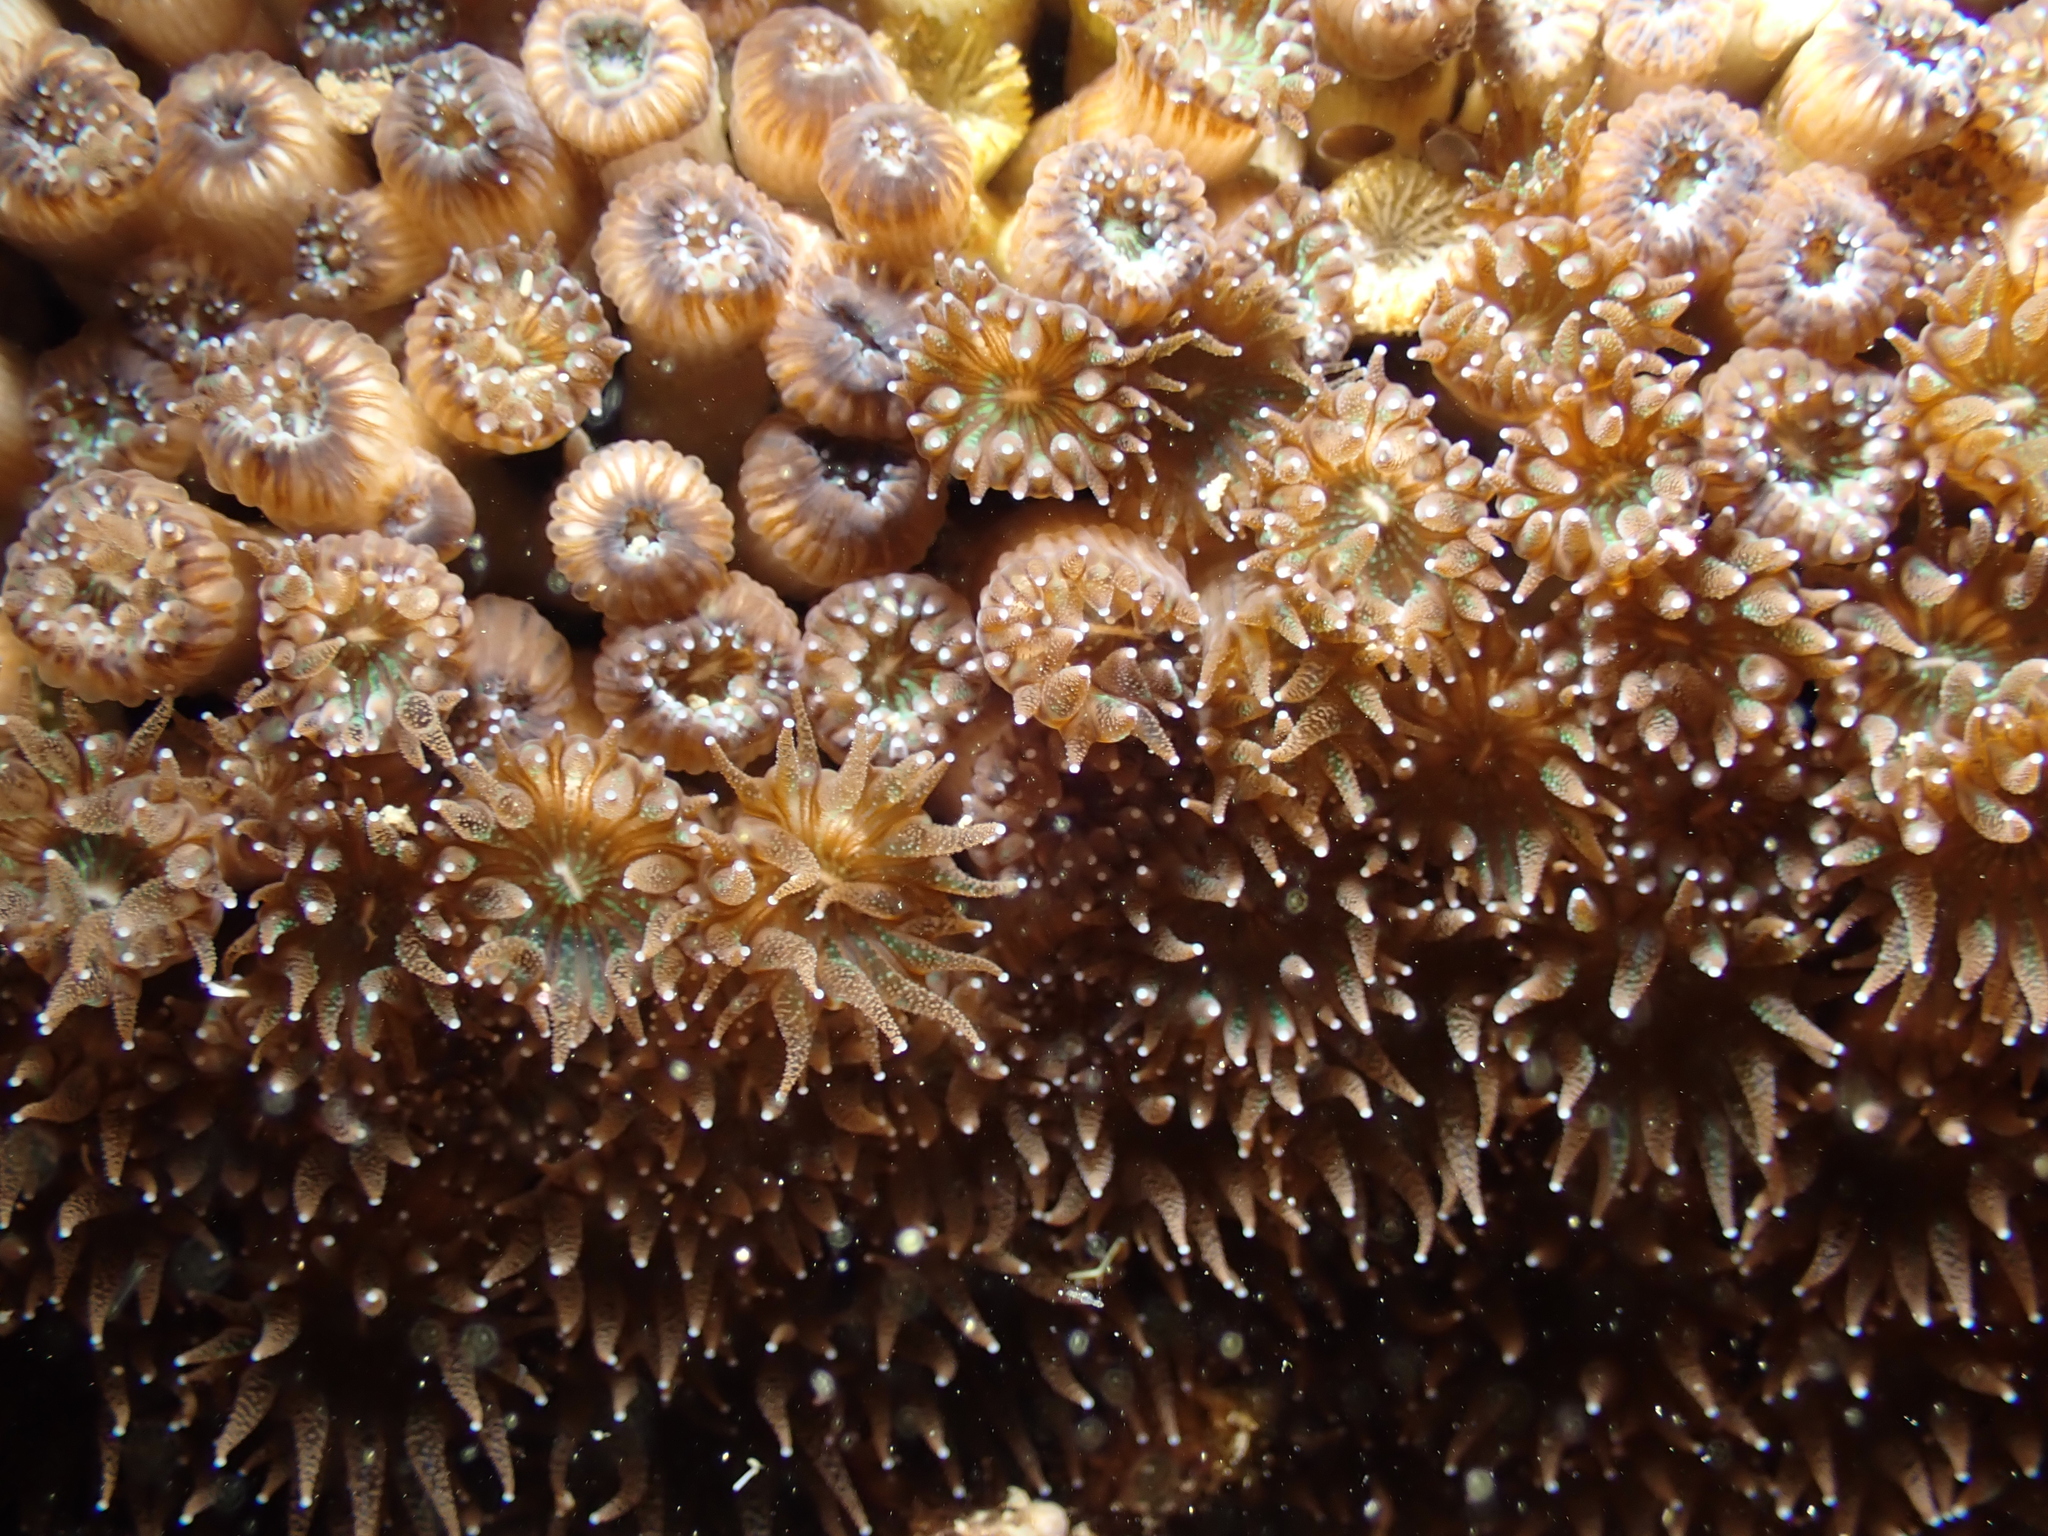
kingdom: Animalia
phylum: Cnidaria
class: Anthozoa
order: Scleractinia
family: Cladocoridae
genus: Cladocora
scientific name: Cladocora caespitosa
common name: Cladocora
